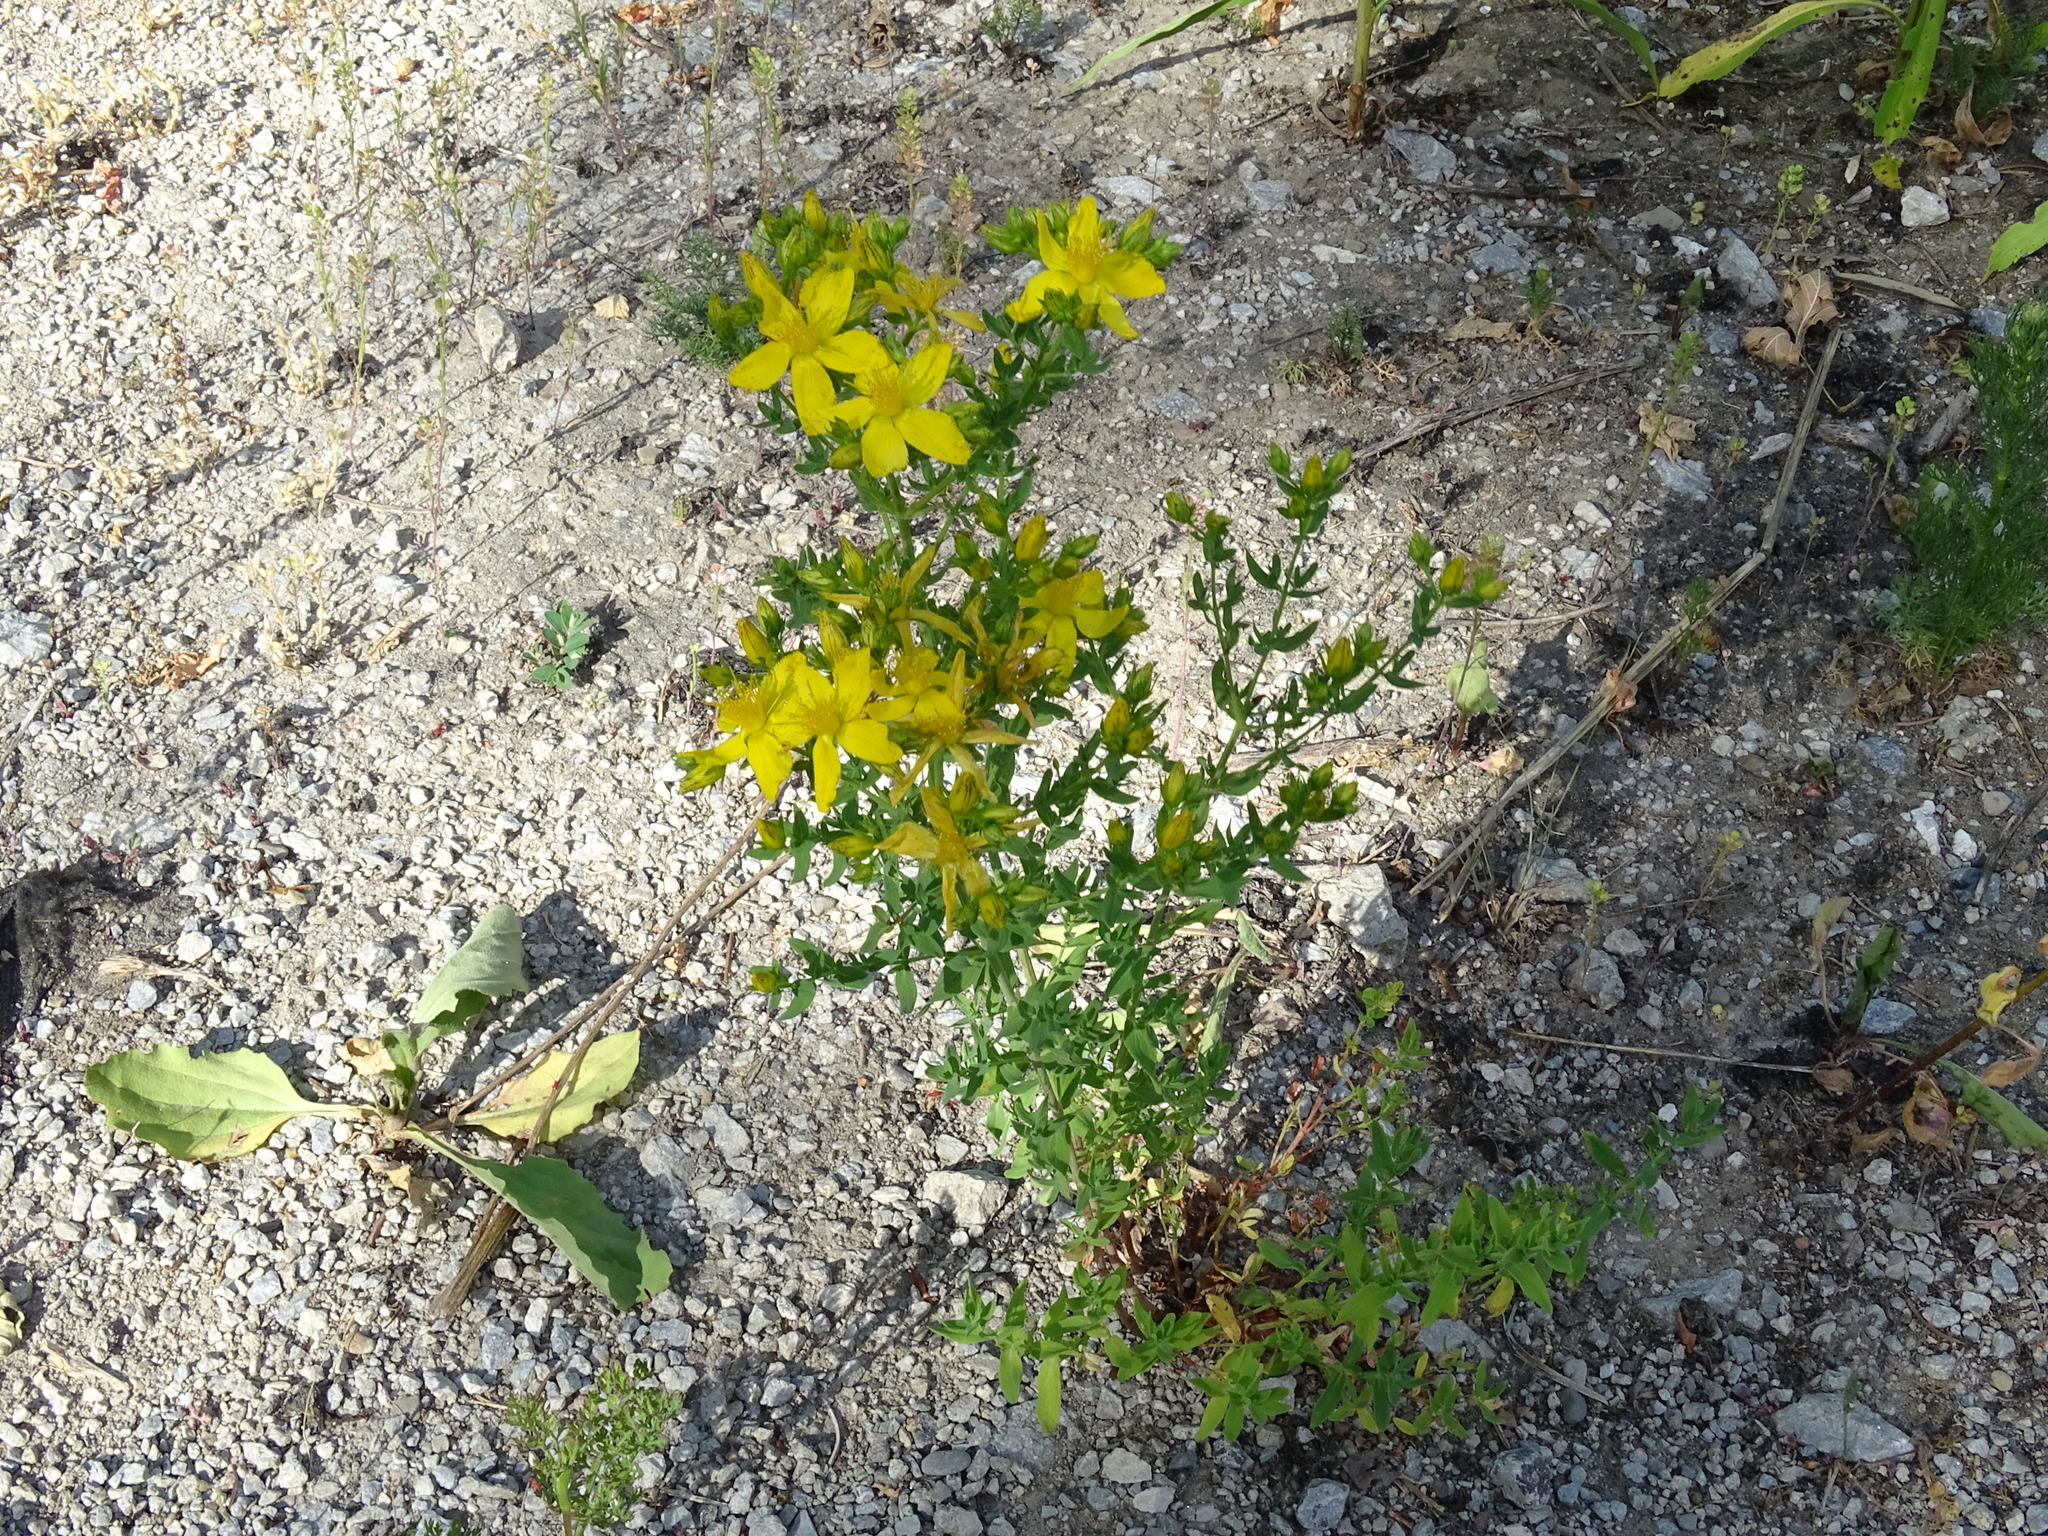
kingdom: Plantae
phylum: Tracheophyta
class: Magnoliopsida
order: Malpighiales
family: Hypericaceae
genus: Hypericum
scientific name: Hypericum perforatum
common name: Common st. johnswort
